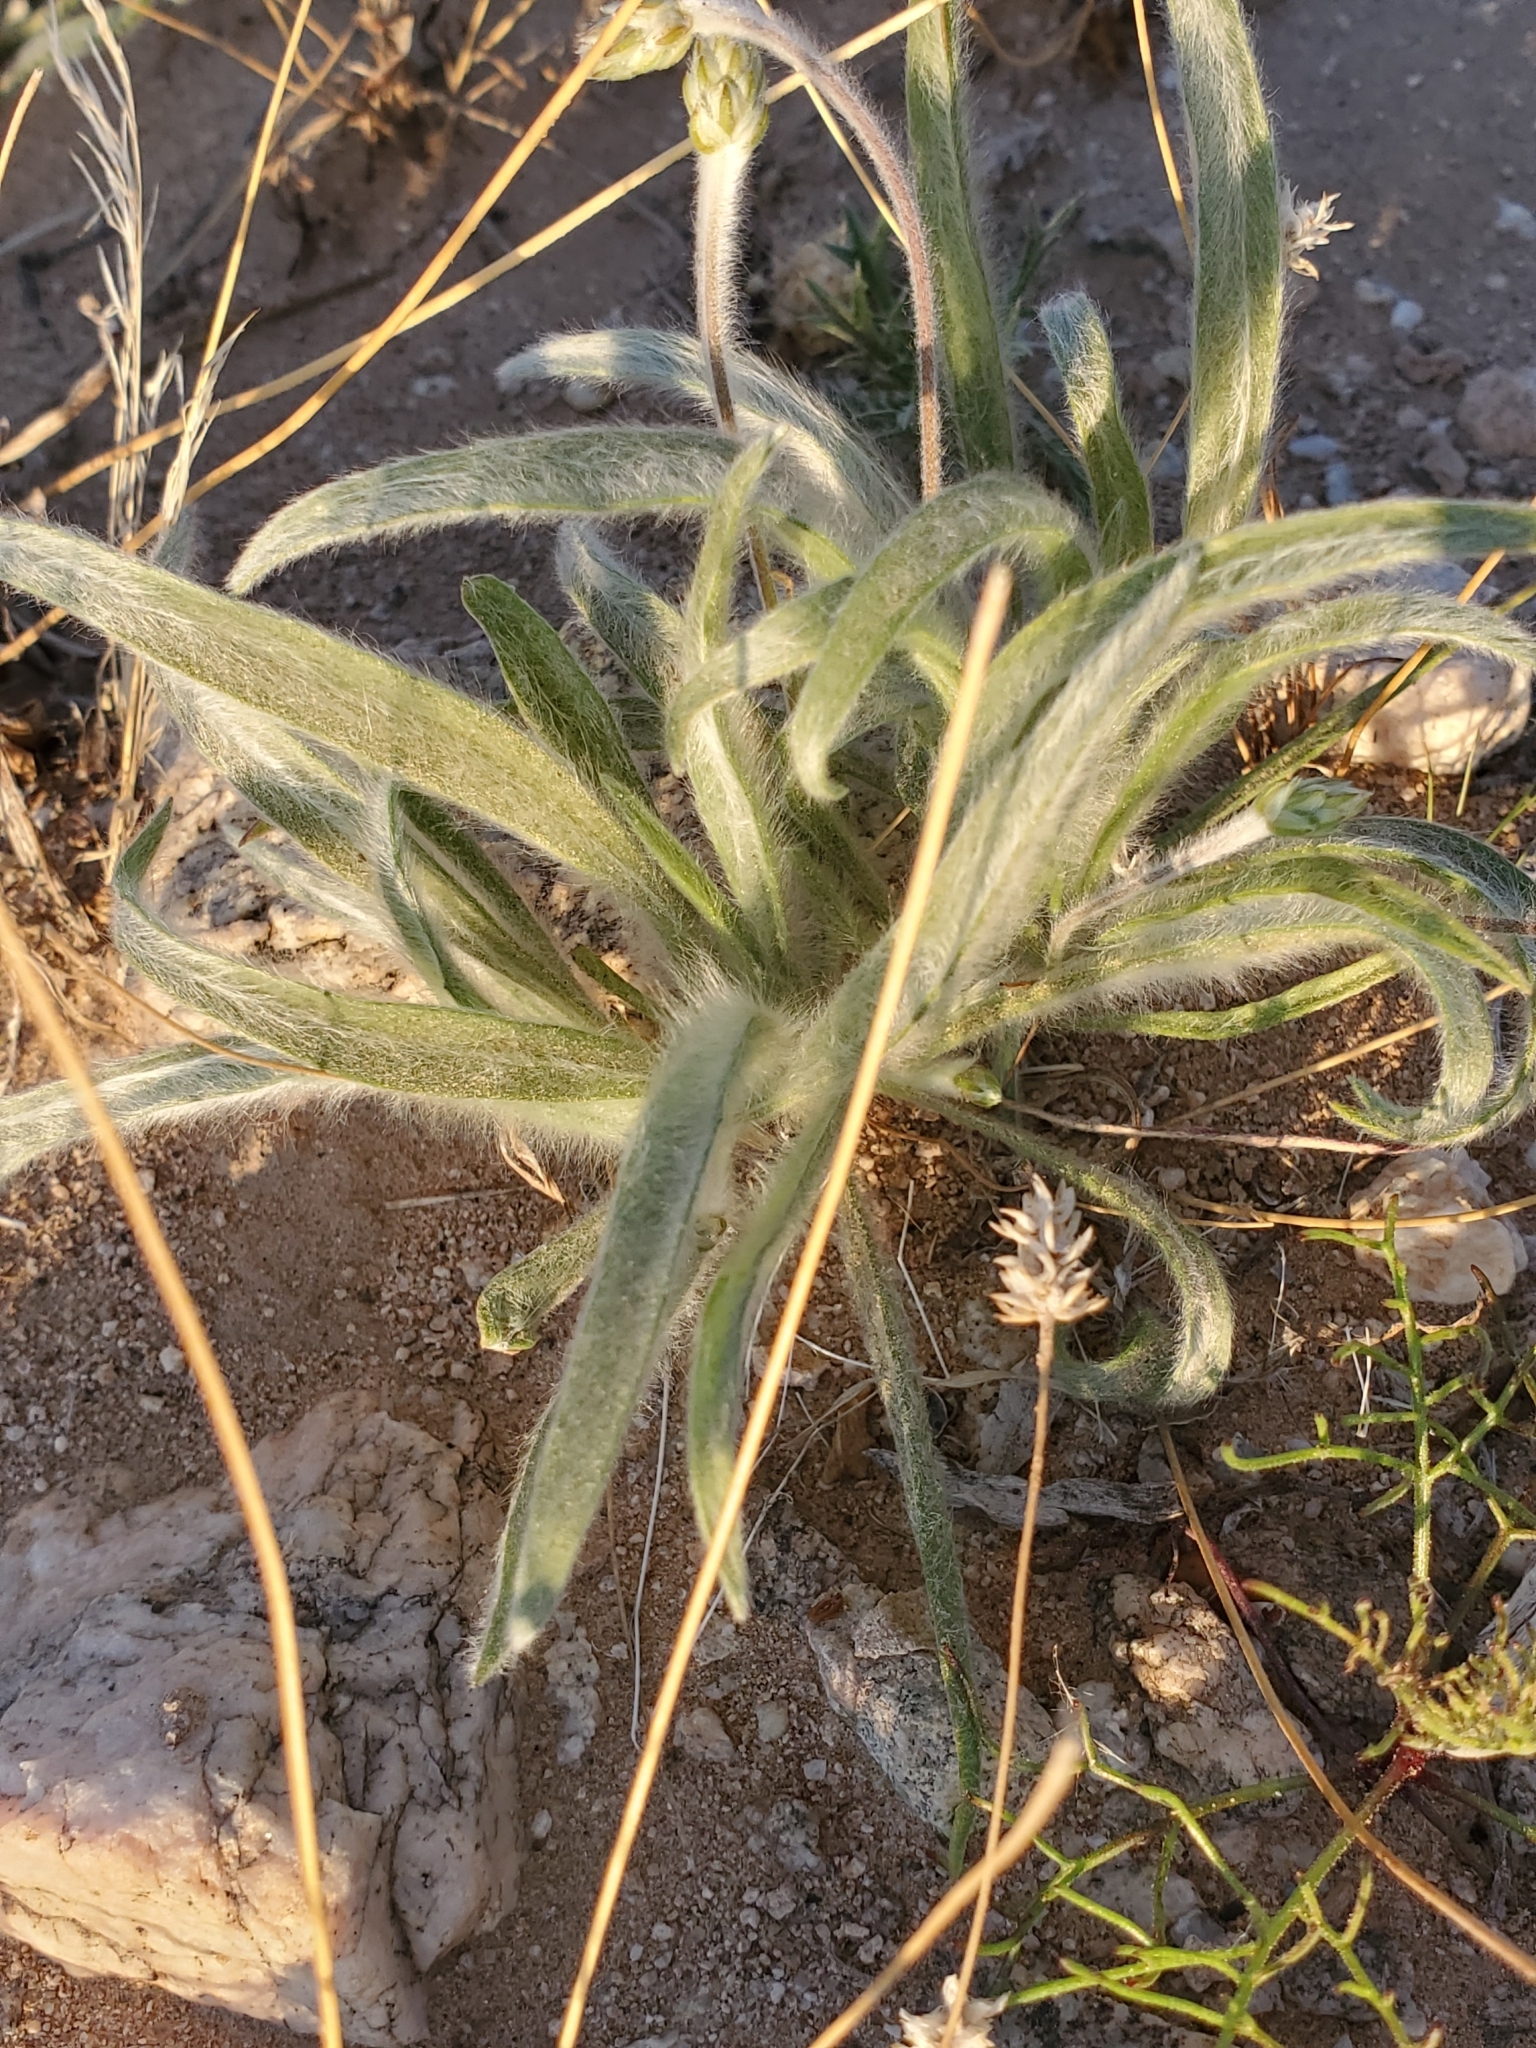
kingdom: Plantae
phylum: Tracheophyta
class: Magnoliopsida
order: Lamiales
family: Plantaginaceae
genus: Plantago
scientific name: Plantago ovata
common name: Blond plantain
